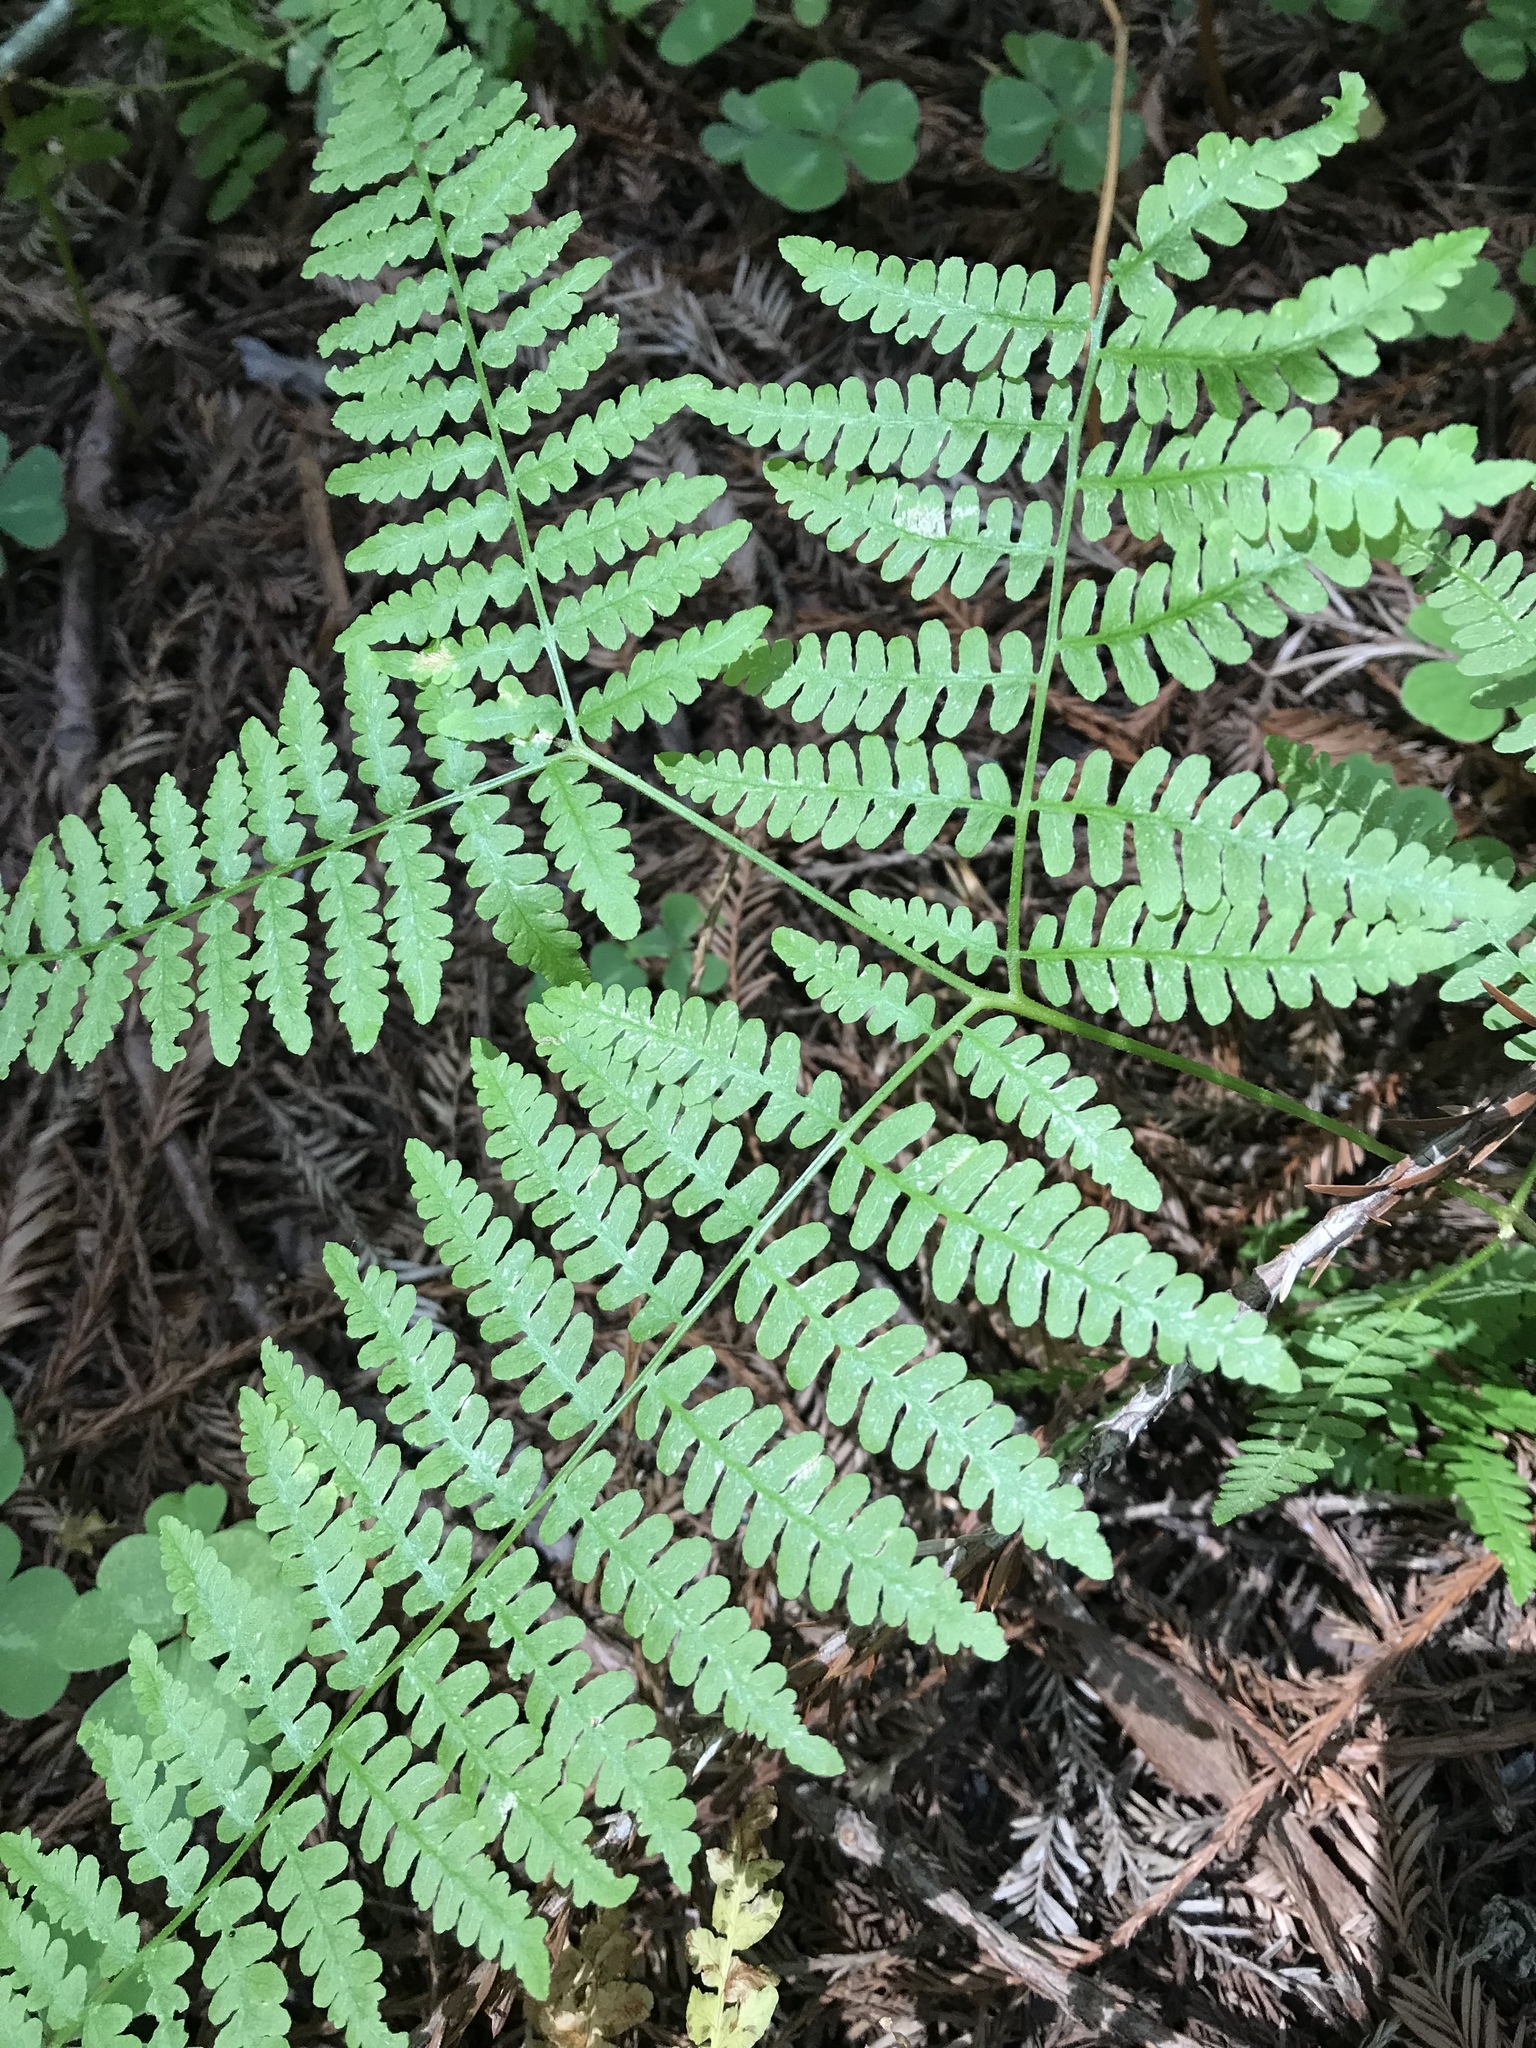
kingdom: Plantae
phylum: Tracheophyta
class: Polypodiopsida
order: Polypodiales
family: Dennstaedtiaceae
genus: Pteridium
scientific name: Pteridium aquilinum
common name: Bracken
